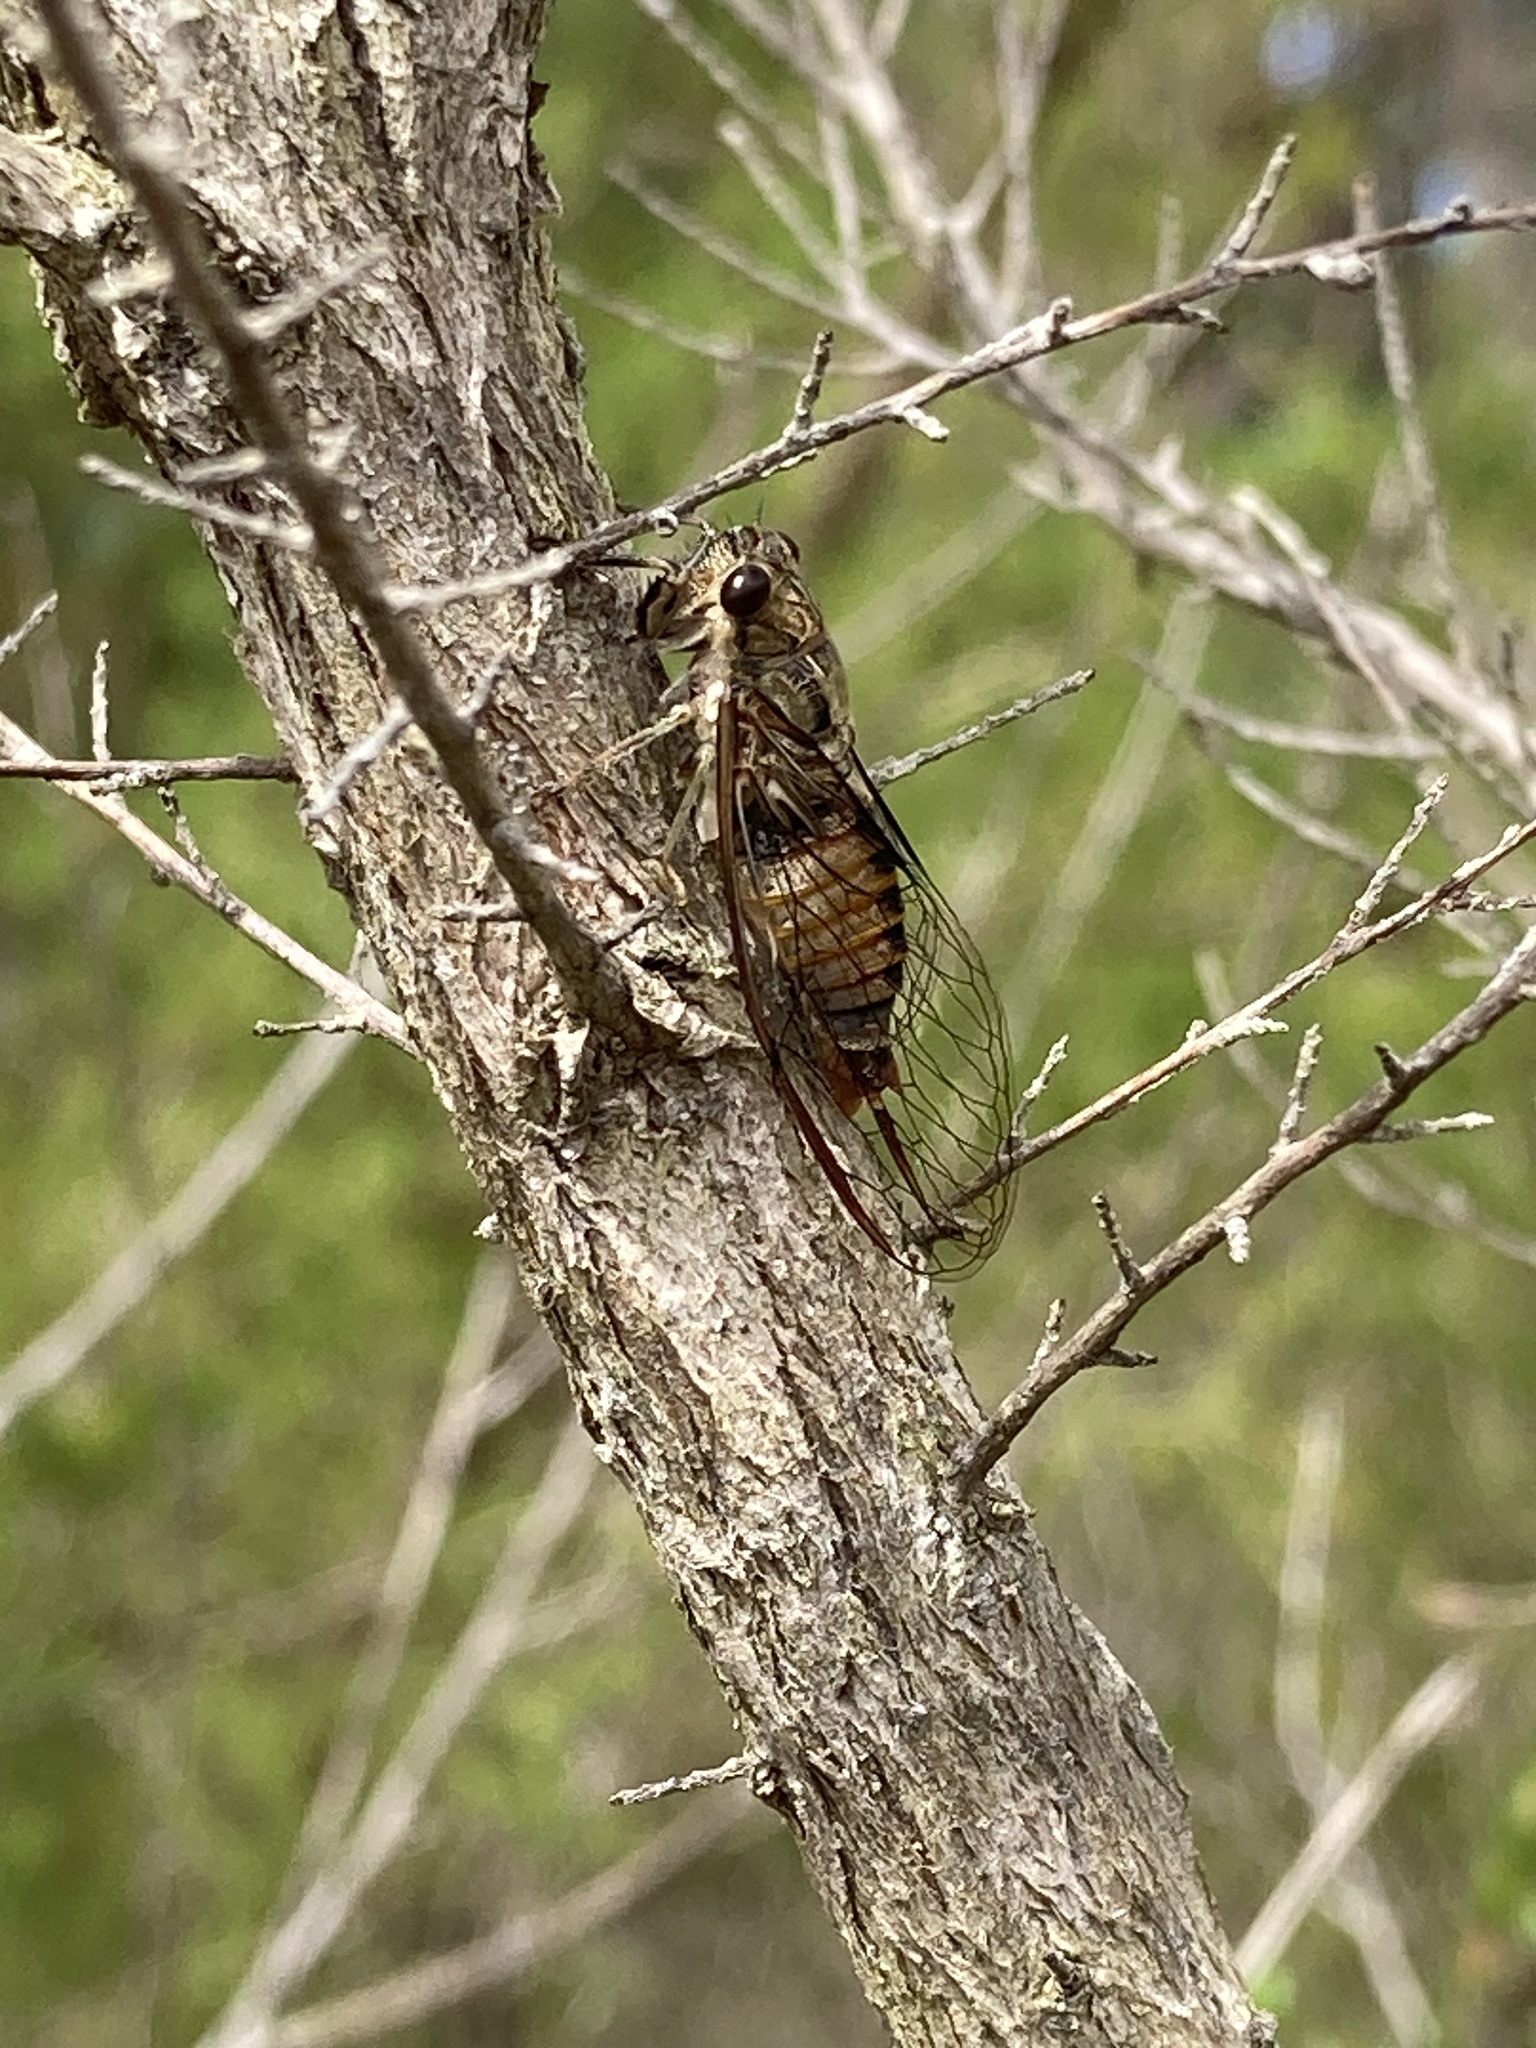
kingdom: Animalia
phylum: Arthropoda
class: Insecta
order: Hemiptera
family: Cicadidae
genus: Yoyetta
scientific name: Yoyetta celis
